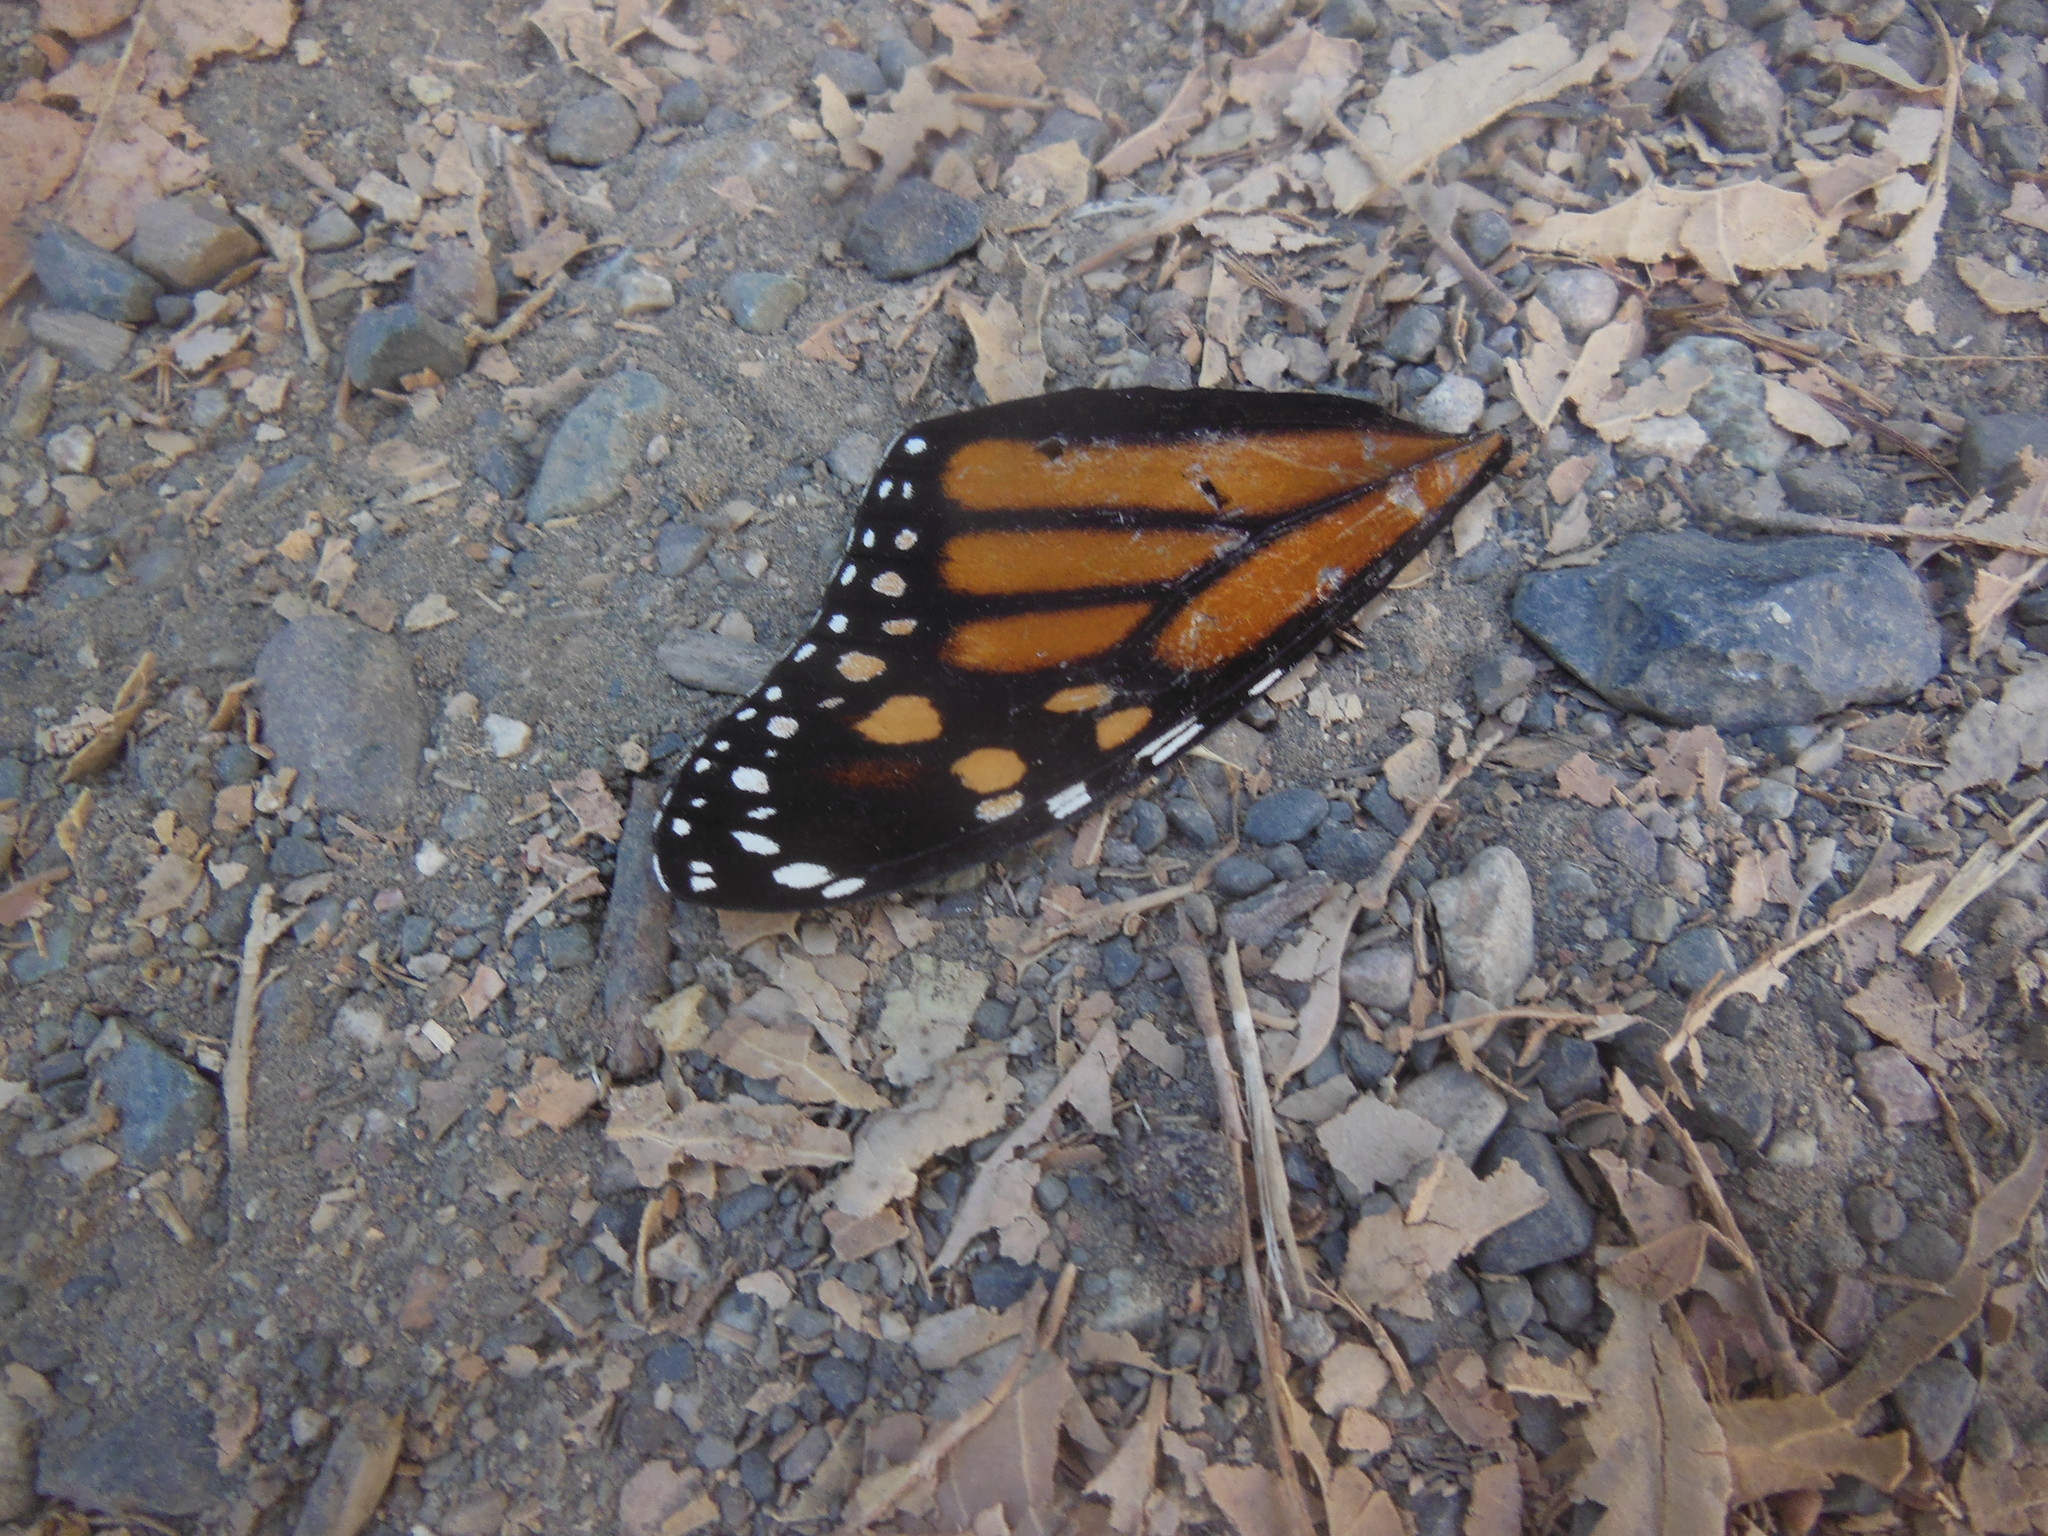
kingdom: Animalia
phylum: Arthropoda
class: Insecta
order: Lepidoptera
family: Nymphalidae
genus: Danaus
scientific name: Danaus plexippus
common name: Monarch
